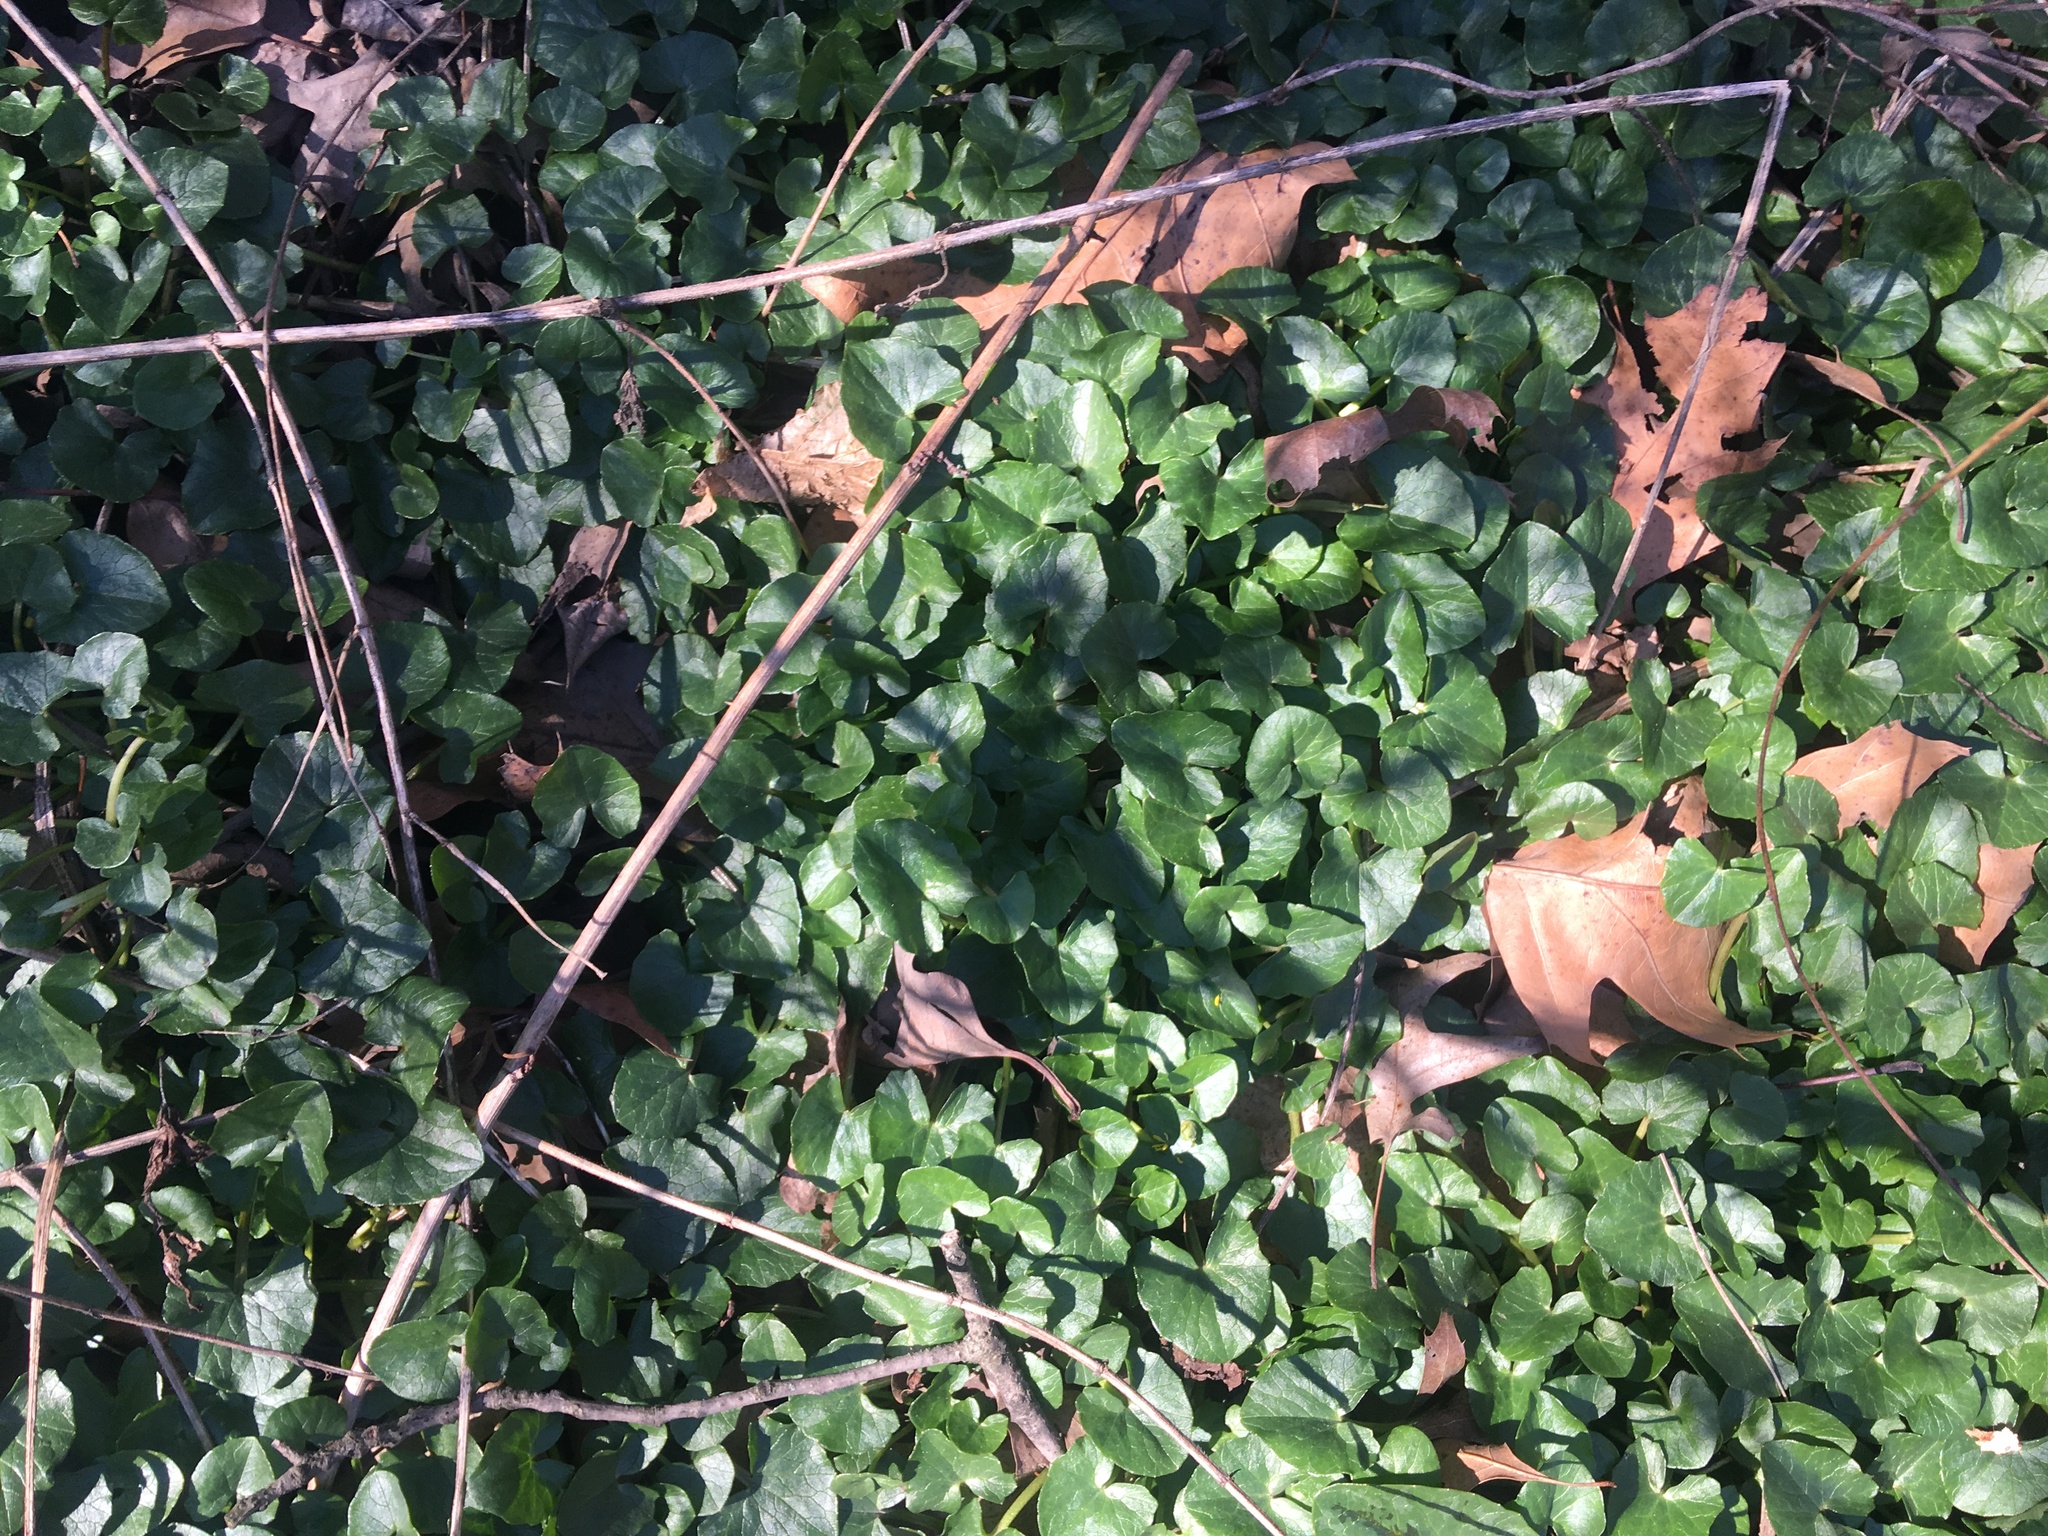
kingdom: Plantae
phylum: Tracheophyta
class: Magnoliopsida
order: Ranunculales
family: Ranunculaceae
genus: Ficaria
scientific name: Ficaria verna
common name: Lesser celandine
